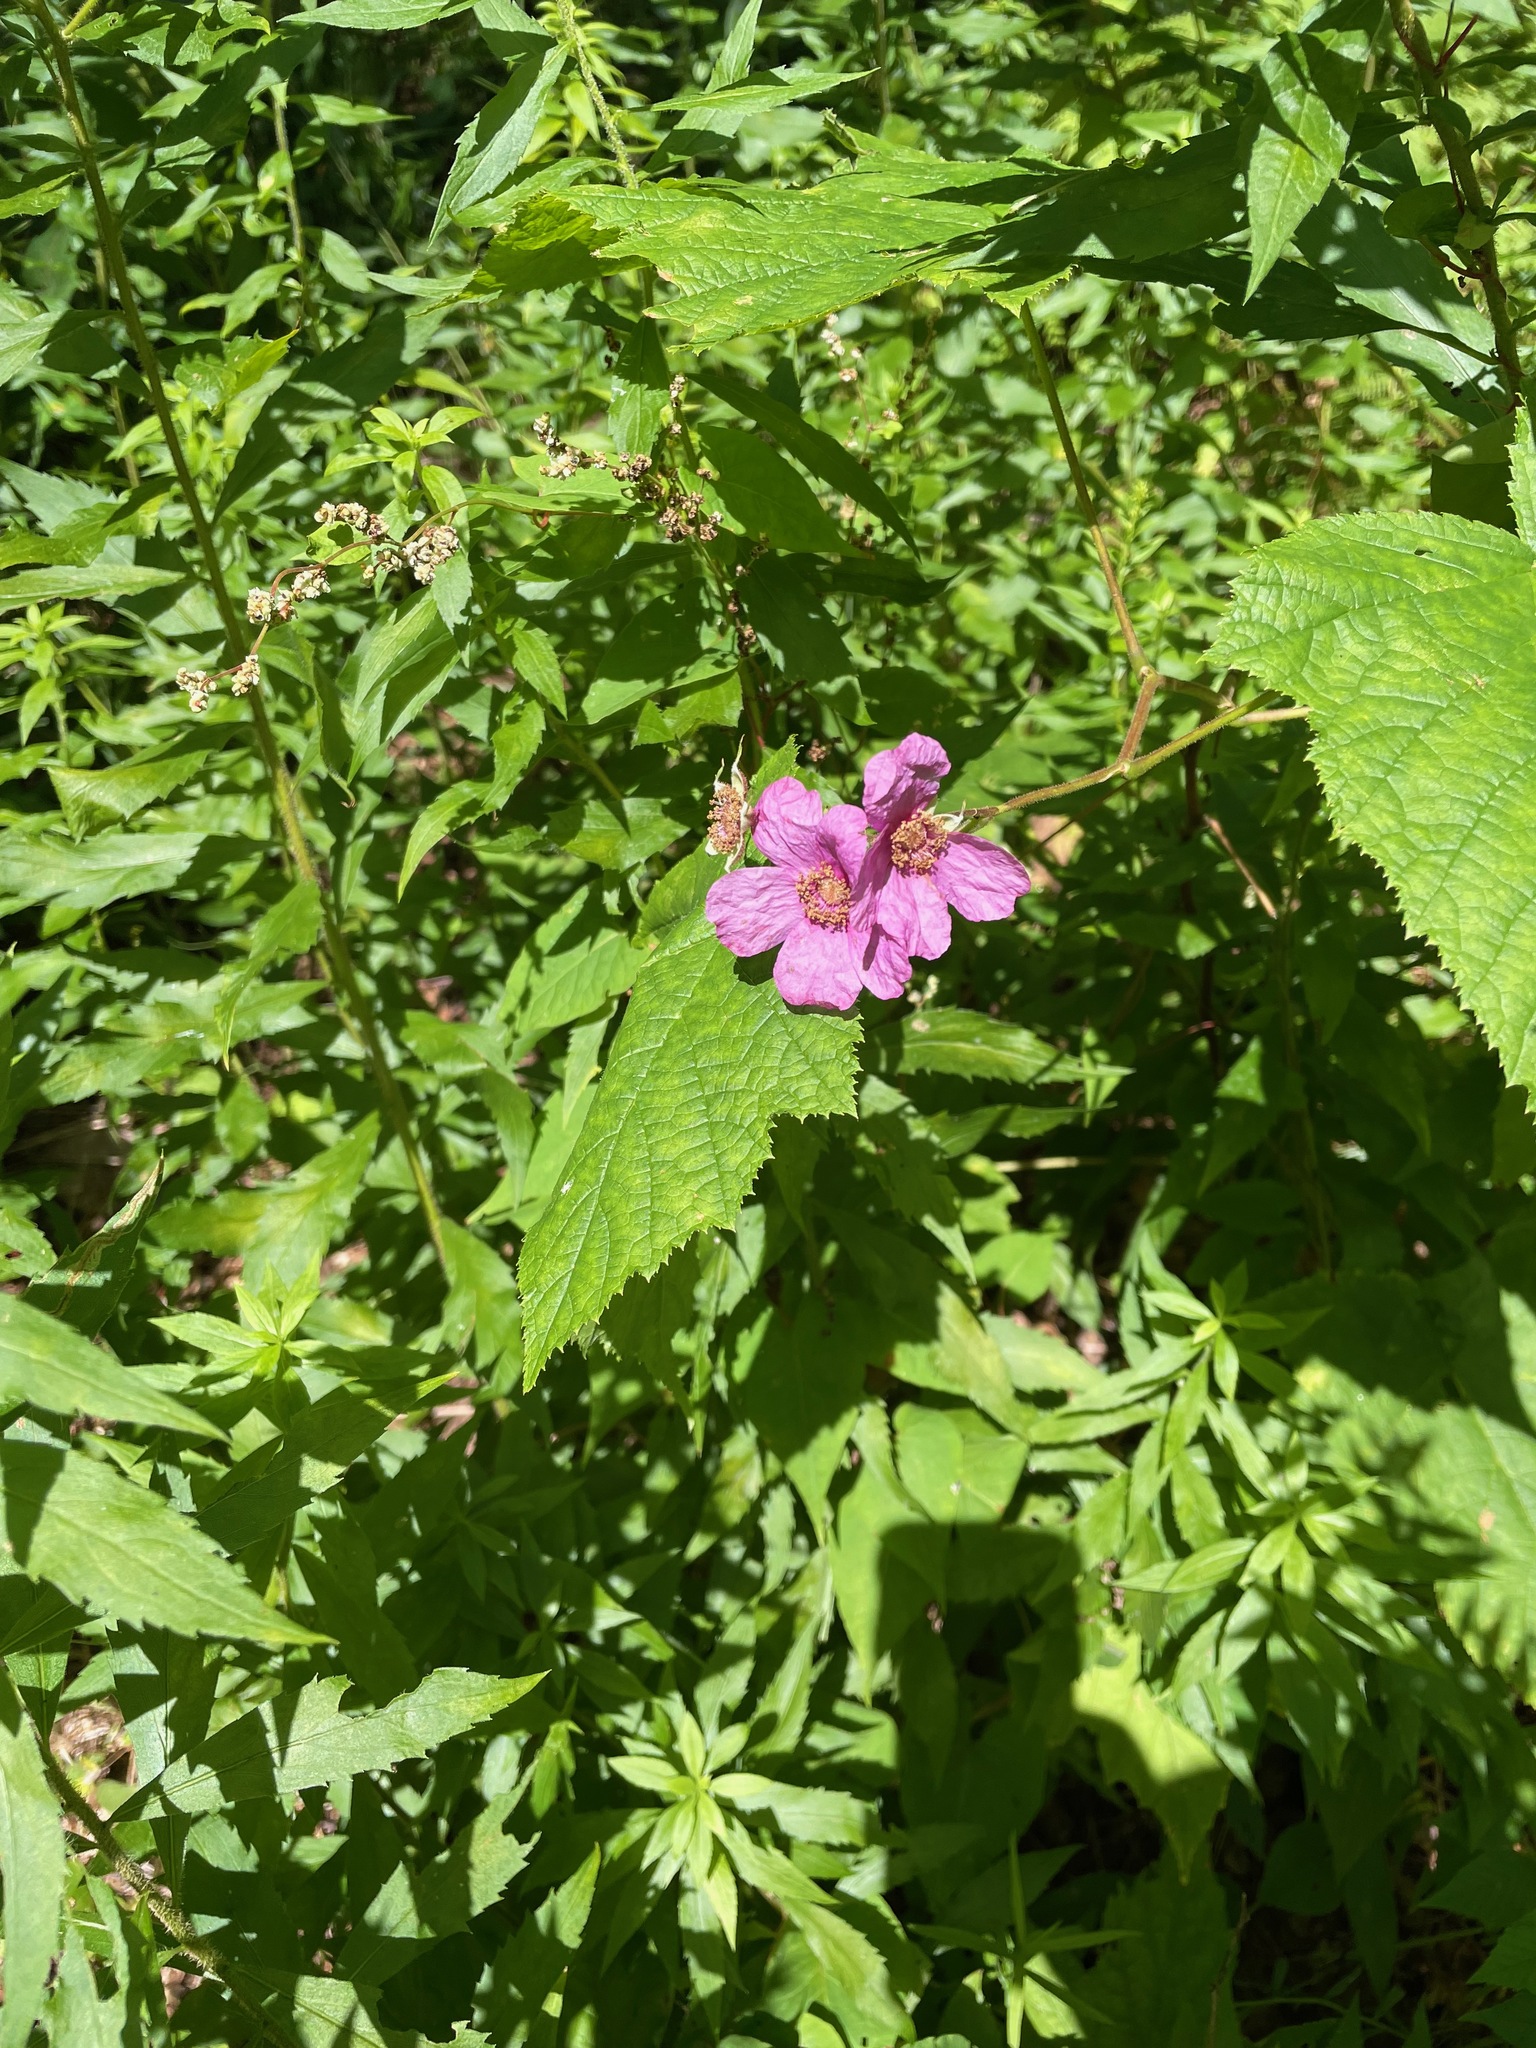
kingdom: Plantae
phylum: Tracheophyta
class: Magnoliopsida
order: Rosales
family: Rosaceae
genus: Rubus
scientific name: Rubus odoratus
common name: Purple-flowered raspberry
